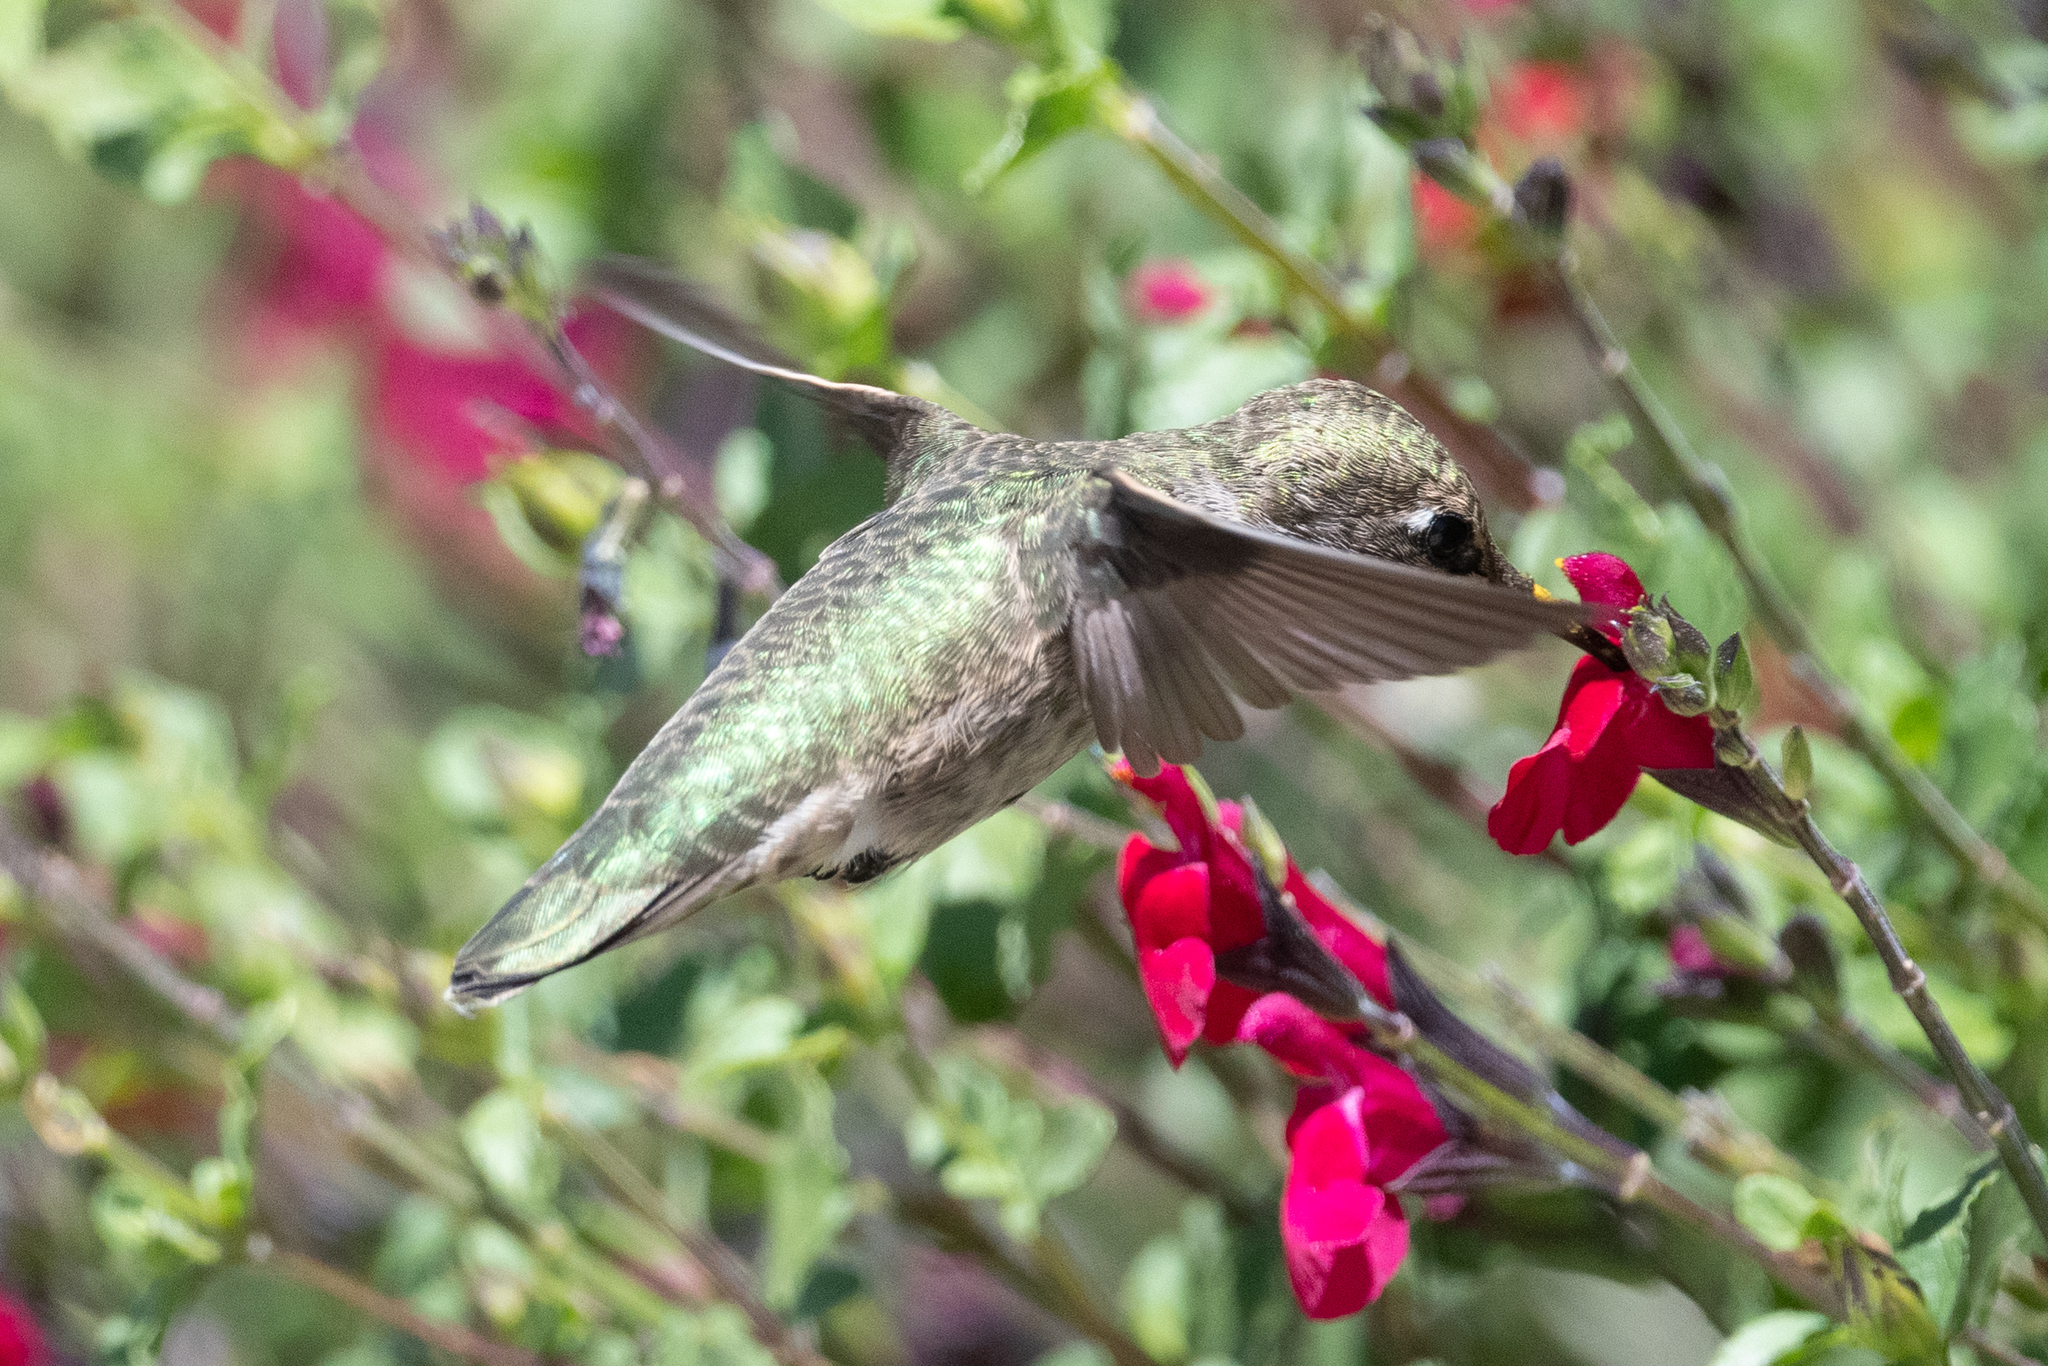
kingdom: Animalia
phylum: Chordata
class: Aves
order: Apodiformes
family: Trochilidae
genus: Calypte
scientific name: Calypte anna
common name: Anna's hummingbird
